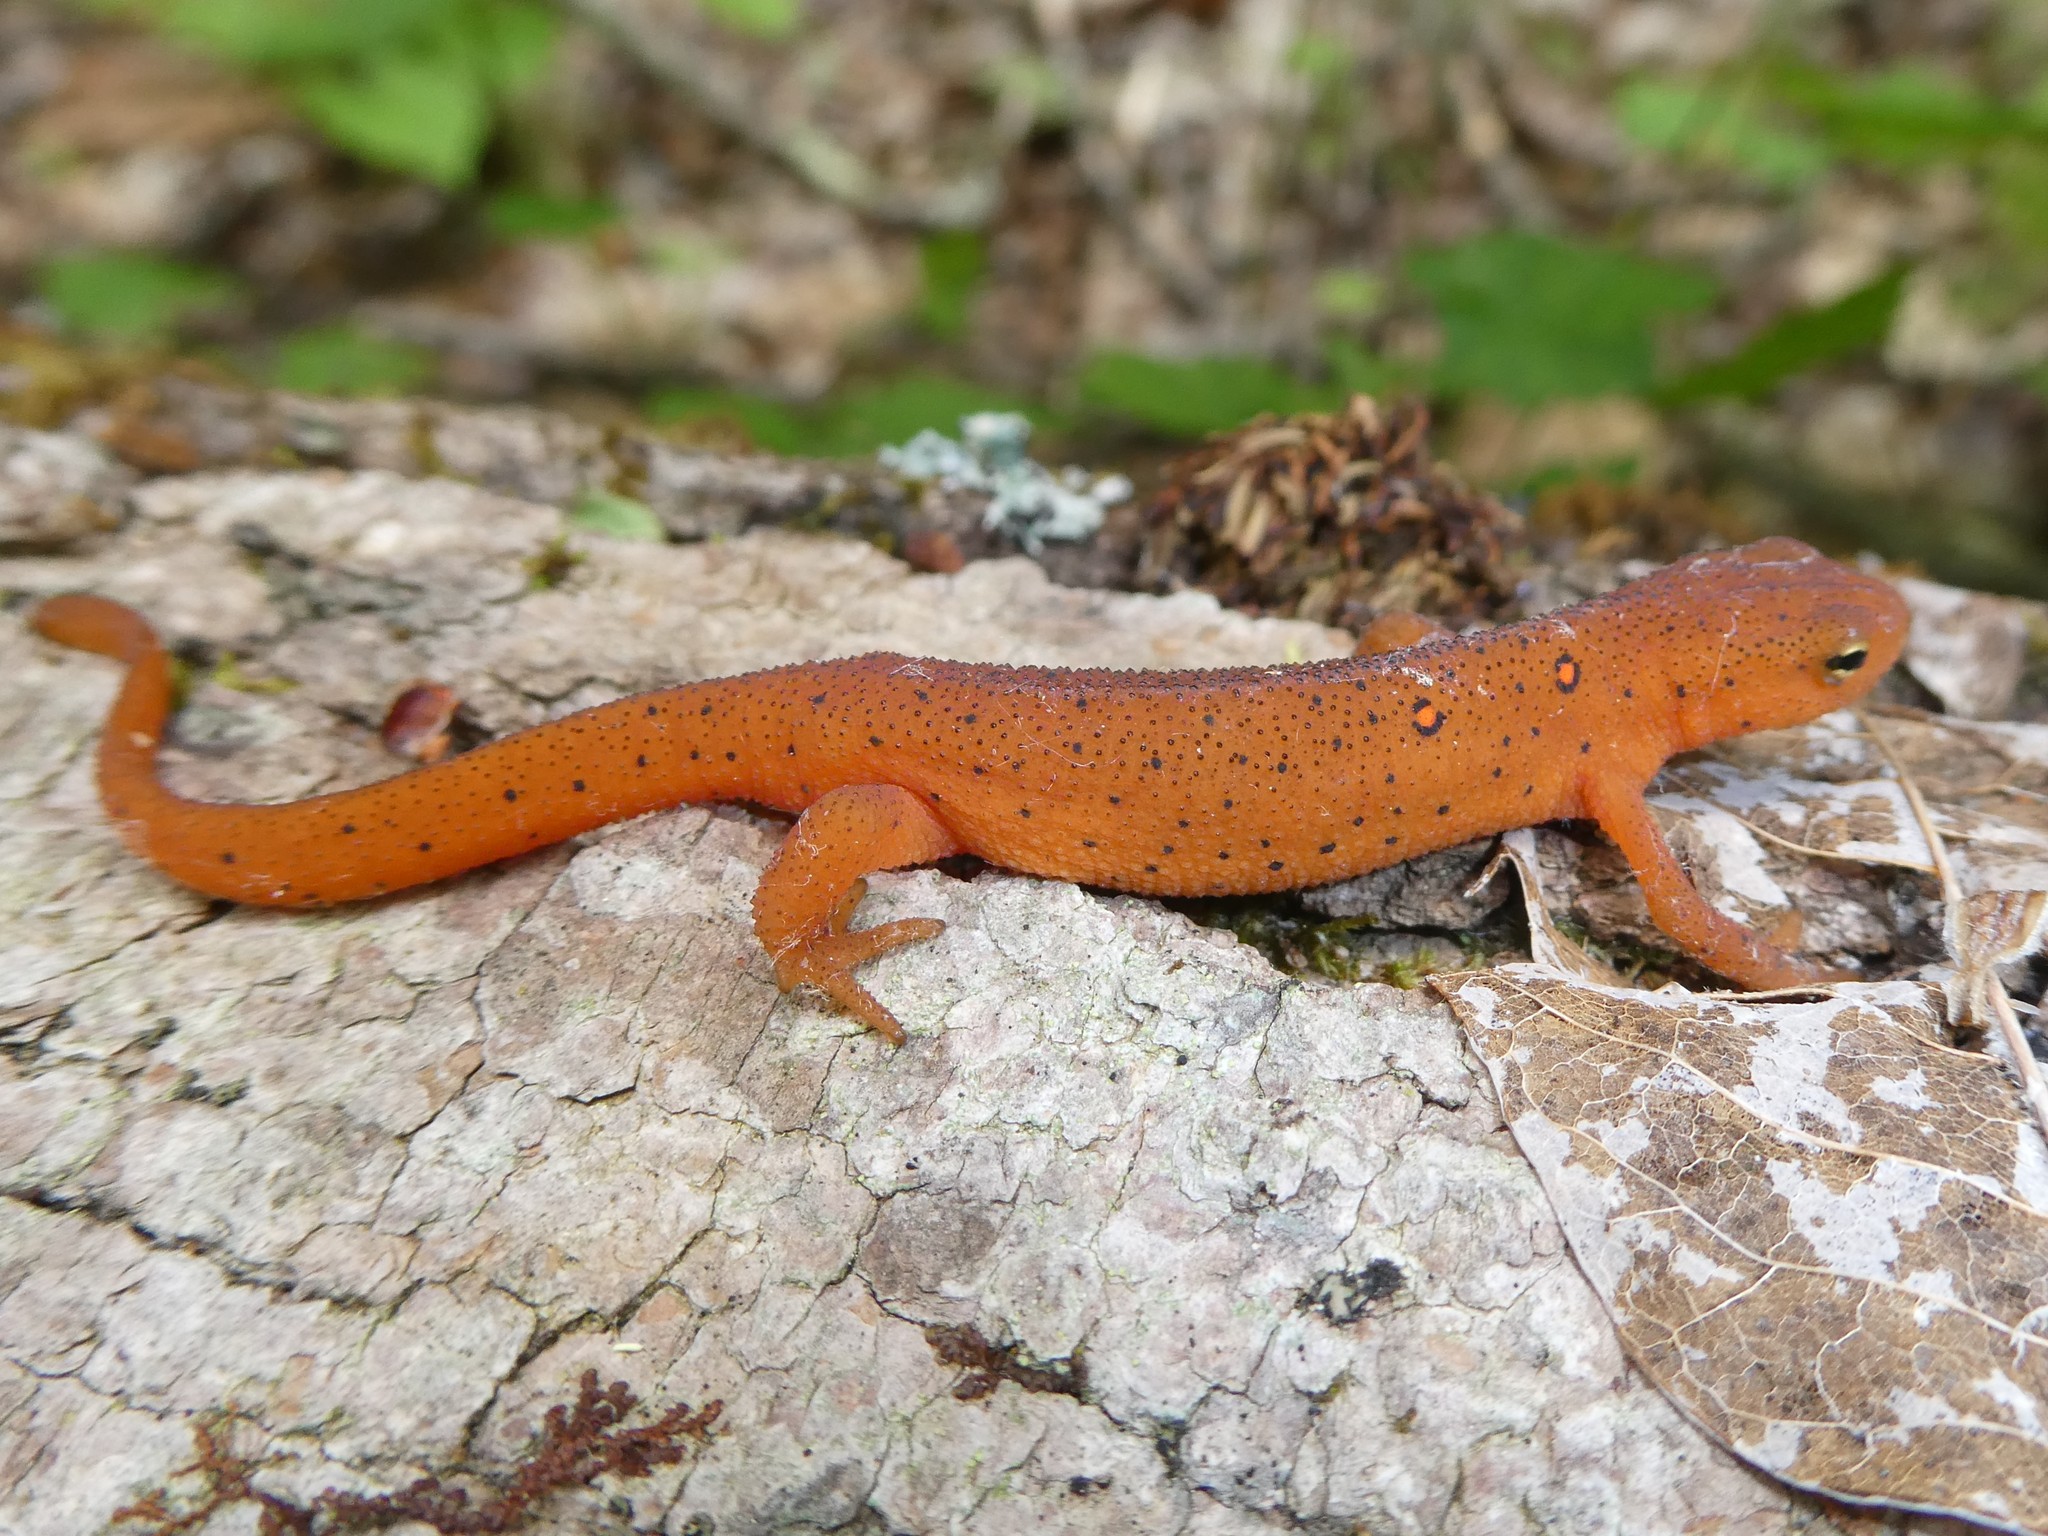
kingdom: Animalia
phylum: Chordata
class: Amphibia
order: Caudata
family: Salamandridae
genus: Notophthalmus
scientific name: Notophthalmus viridescens
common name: Eastern newt
